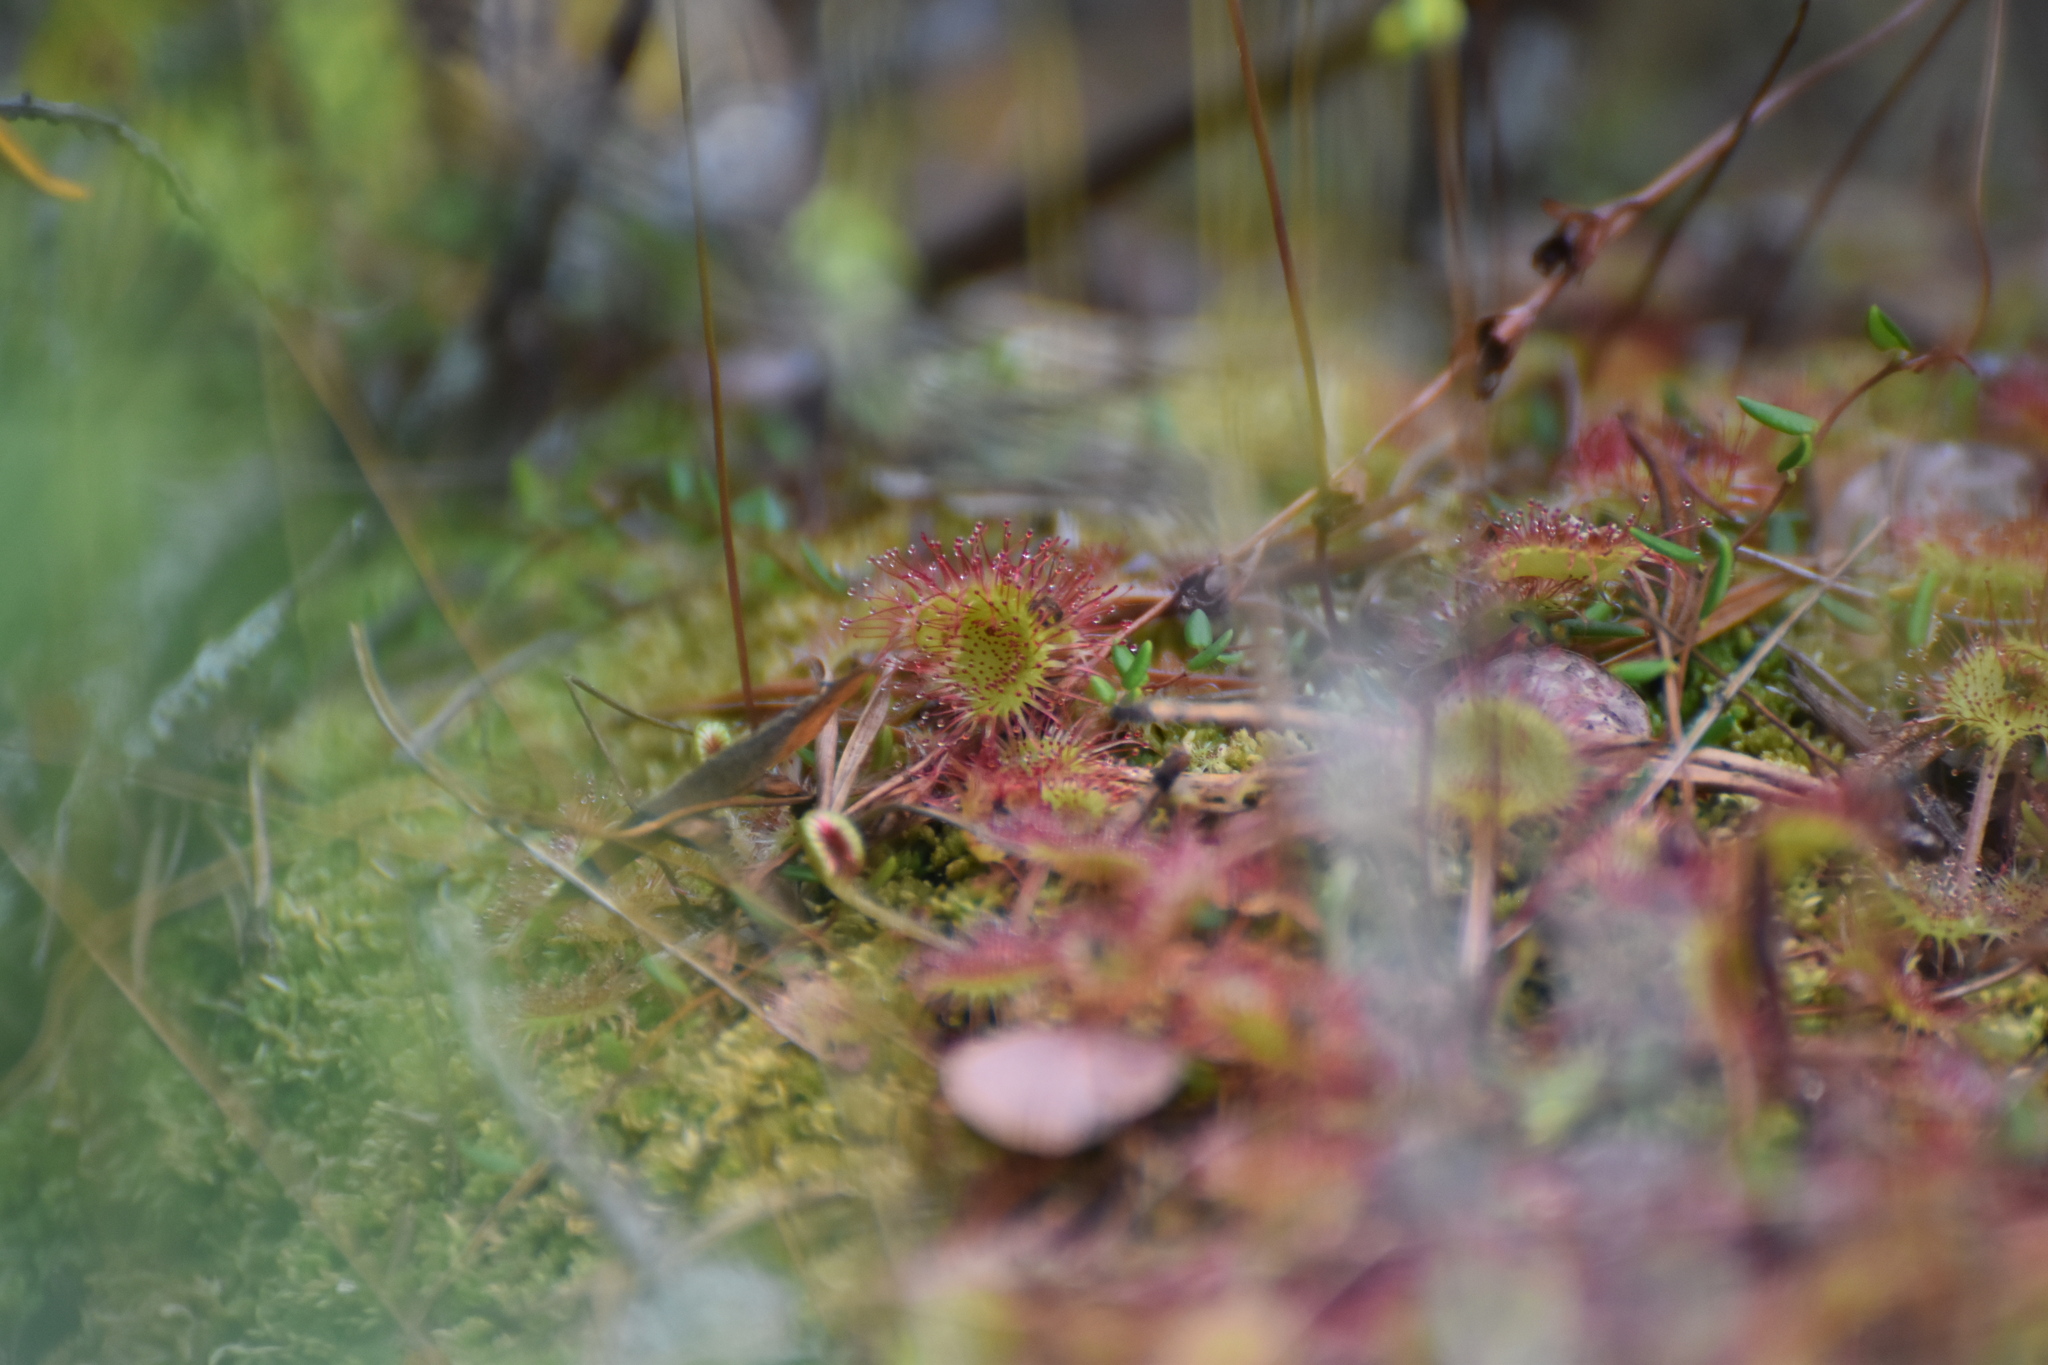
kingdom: Plantae
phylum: Tracheophyta
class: Magnoliopsida
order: Caryophyllales
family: Droseraceae
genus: Drosera
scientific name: Drosera rotundifolia
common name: Round-leaved sundew
